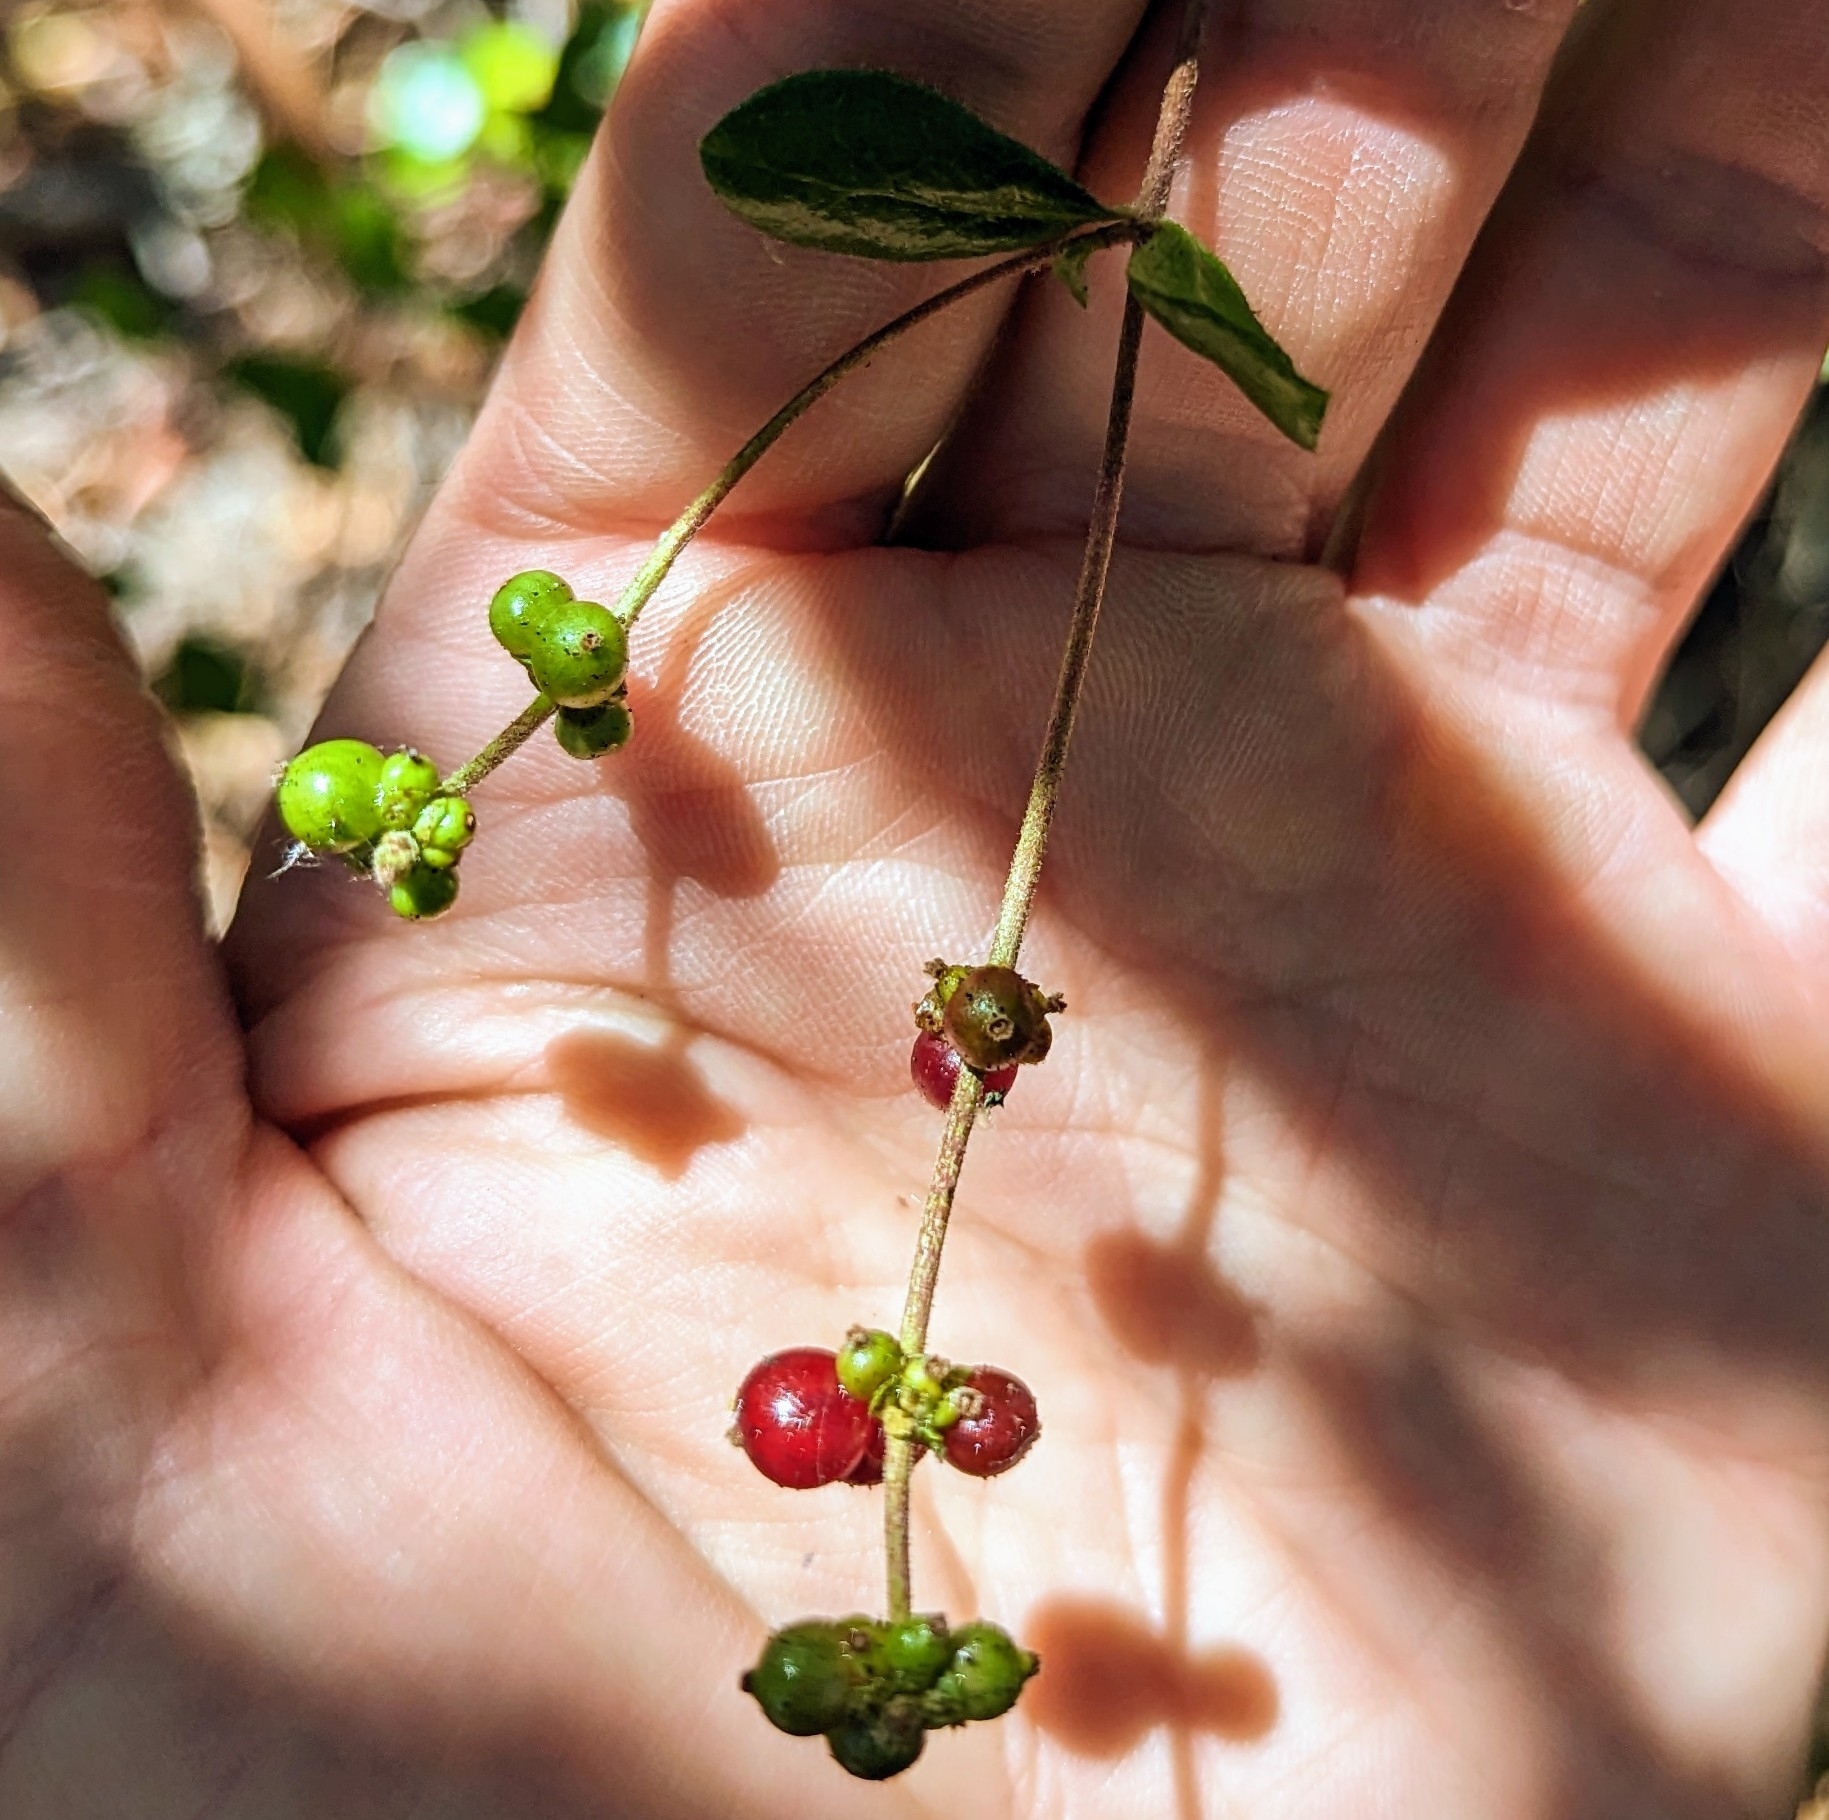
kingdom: Plantae
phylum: Tracheophyta
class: Magnoliopsida
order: Dipsacales
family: Caprifoliaceae
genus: Lonicera
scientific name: Lonicera subspicata
